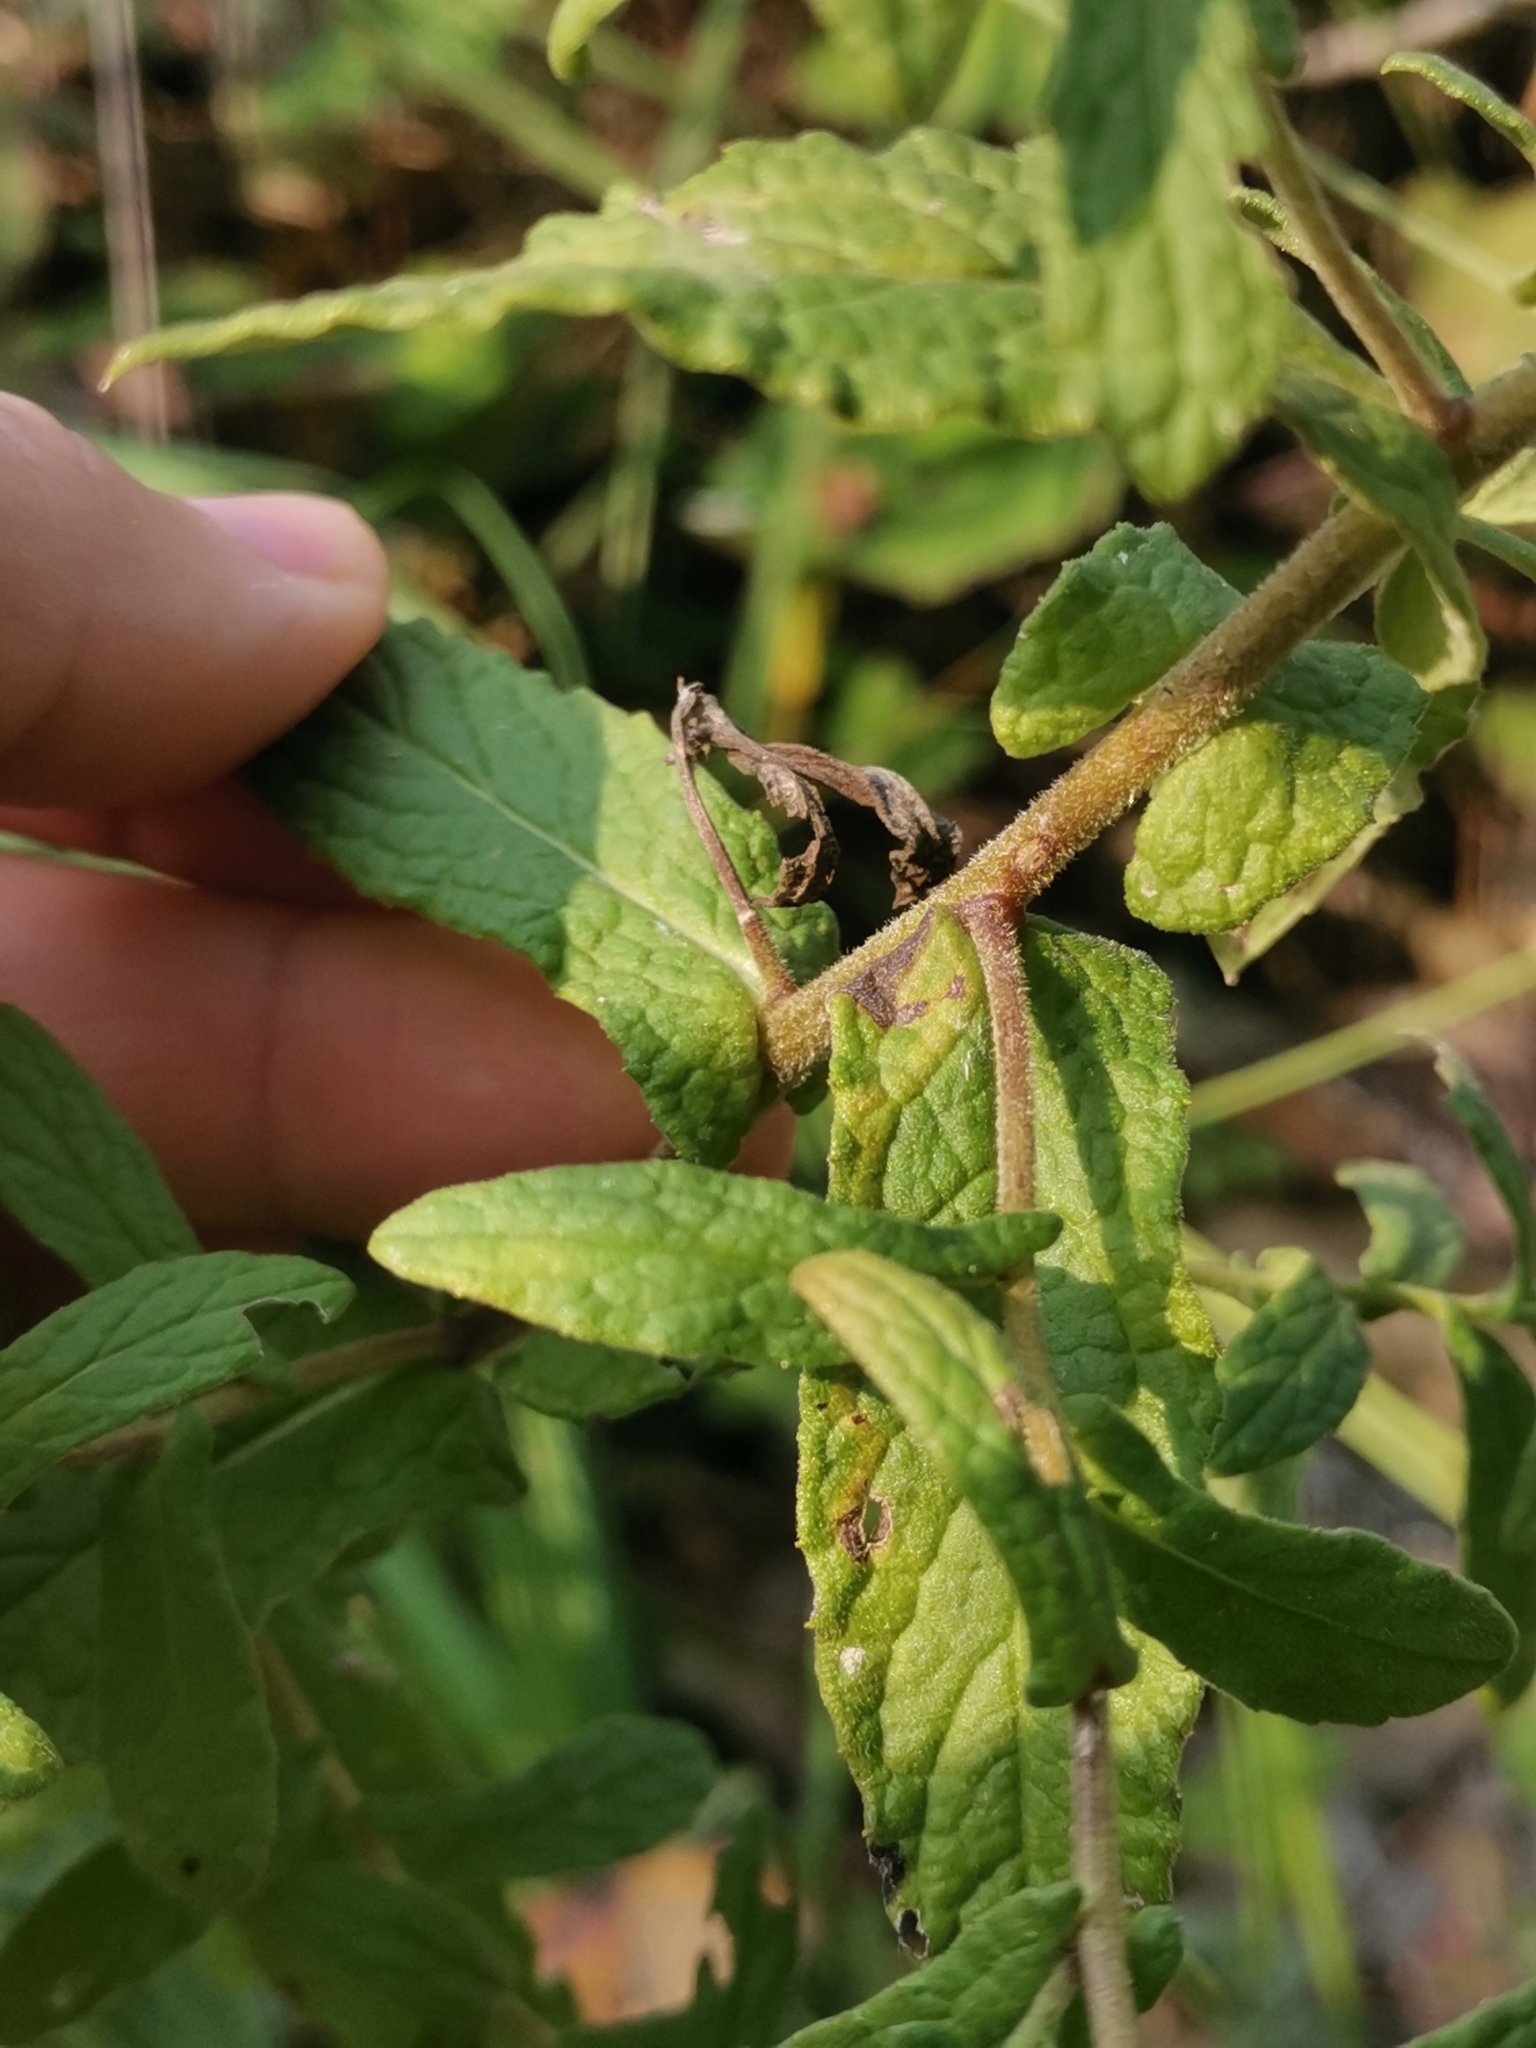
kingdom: Plantae
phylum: Tracheophyta
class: Magnoliopsida
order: Asterales
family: Asteraceae
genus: Pulicaria
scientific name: Pulicaria dysenterica
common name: Common fleabane
